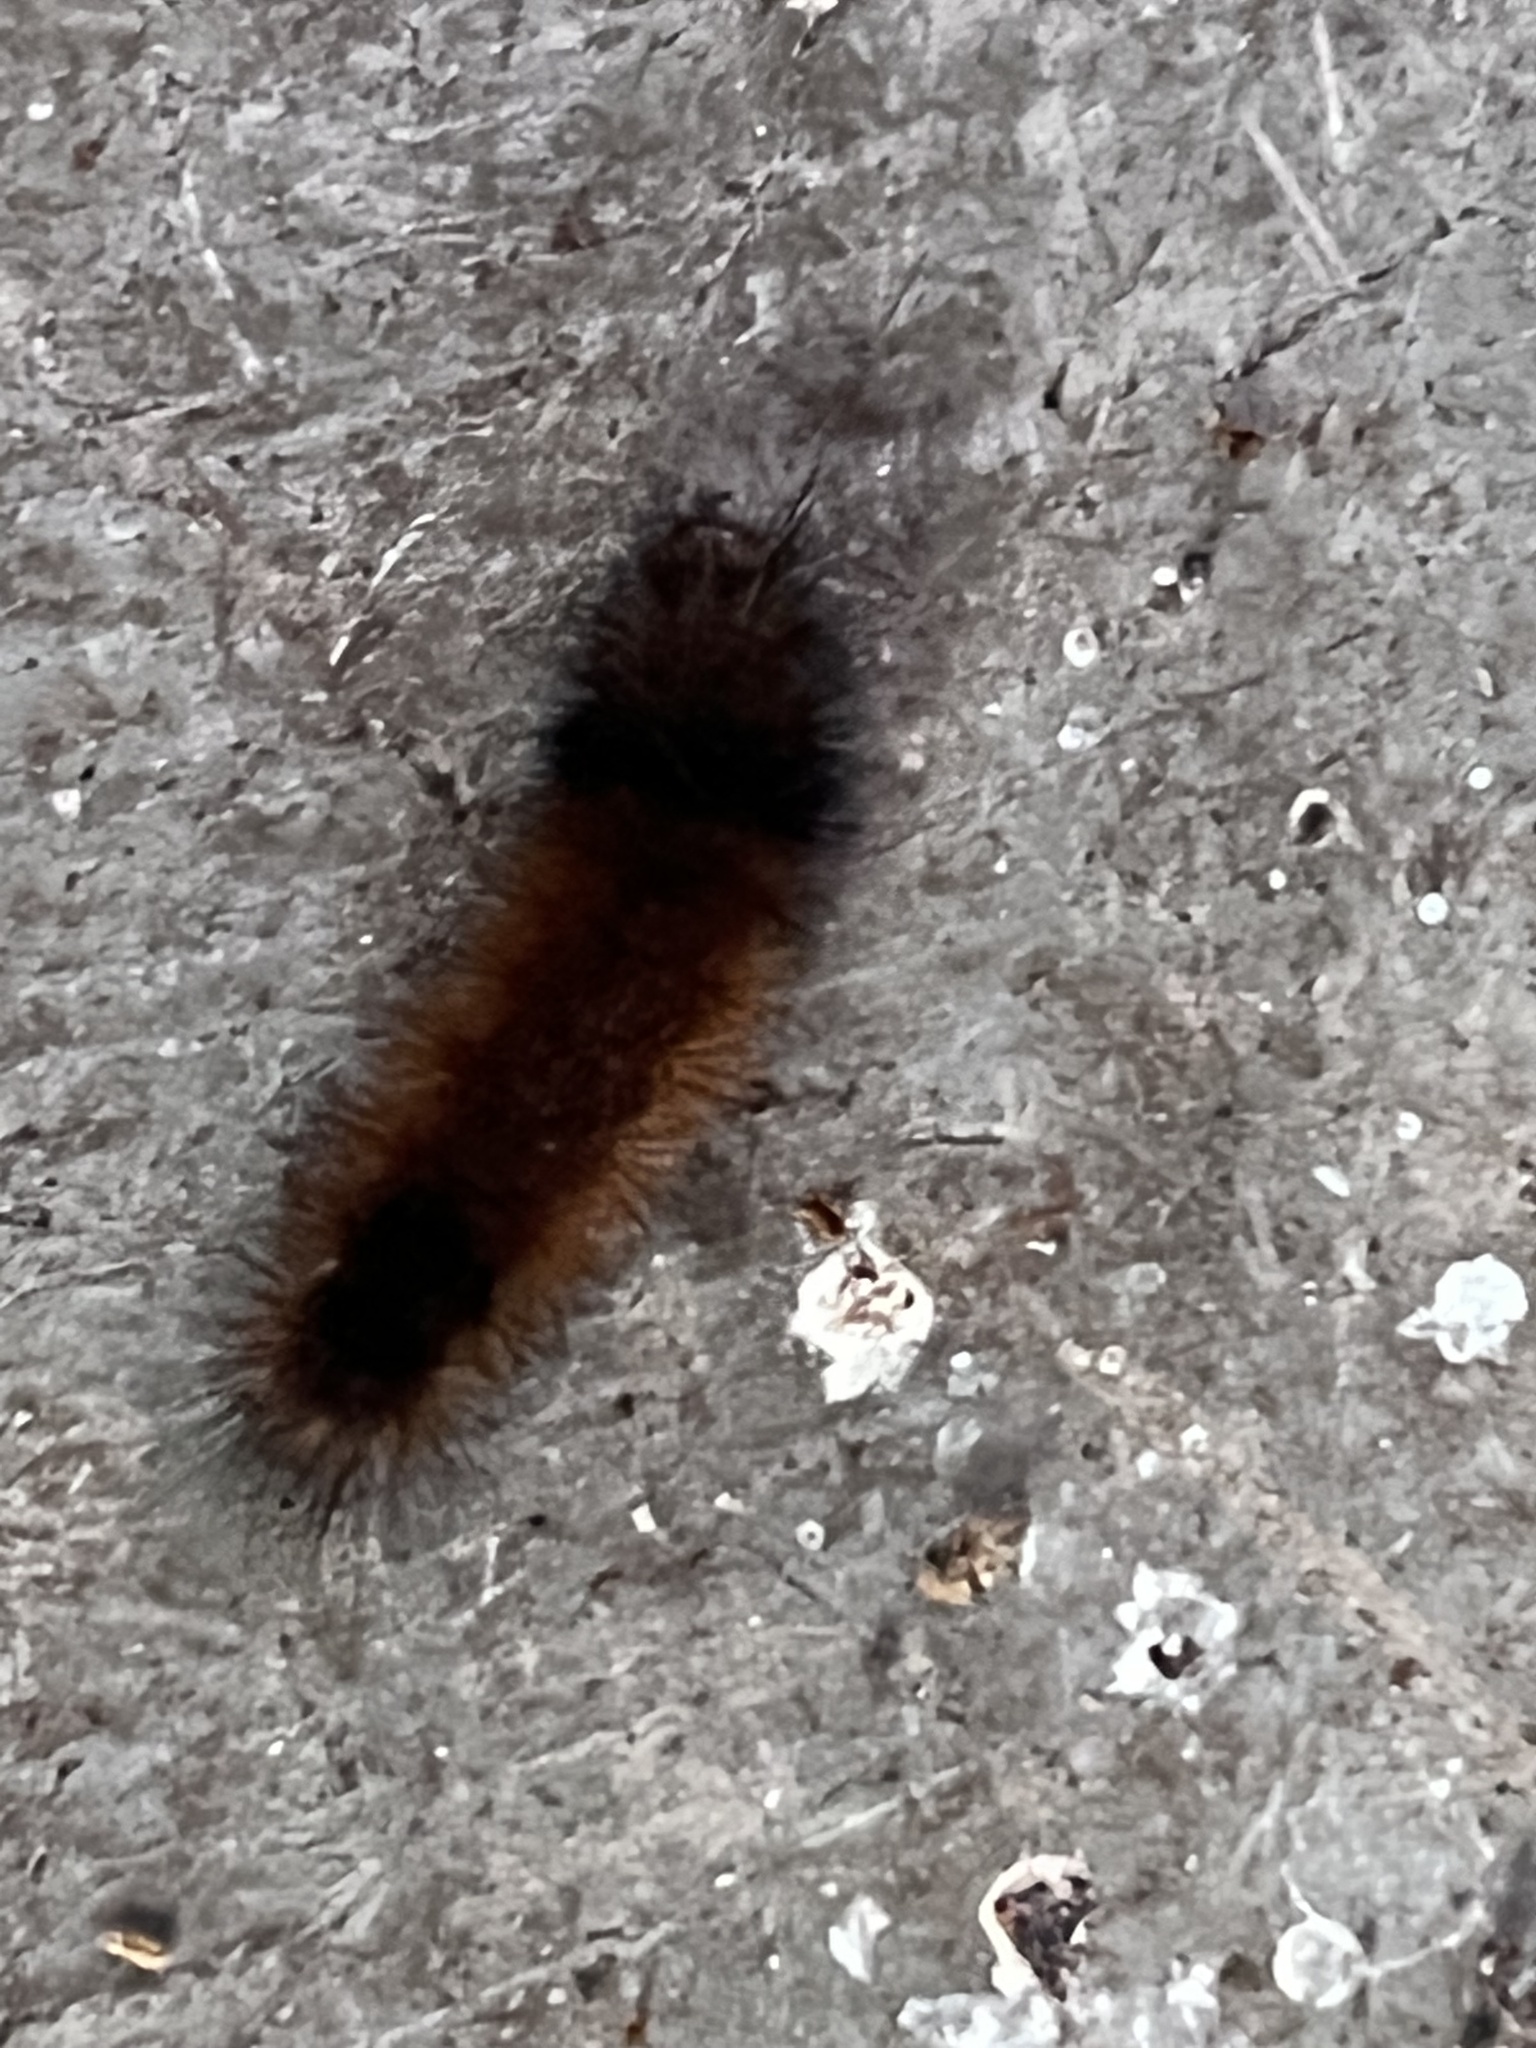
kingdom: Animalia
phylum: Arthropoda
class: Insecta
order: Lepidoptera
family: Erebidae
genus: Pyrrharctia
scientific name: Pyrrharctia isabella
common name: Isabella tiger moth
